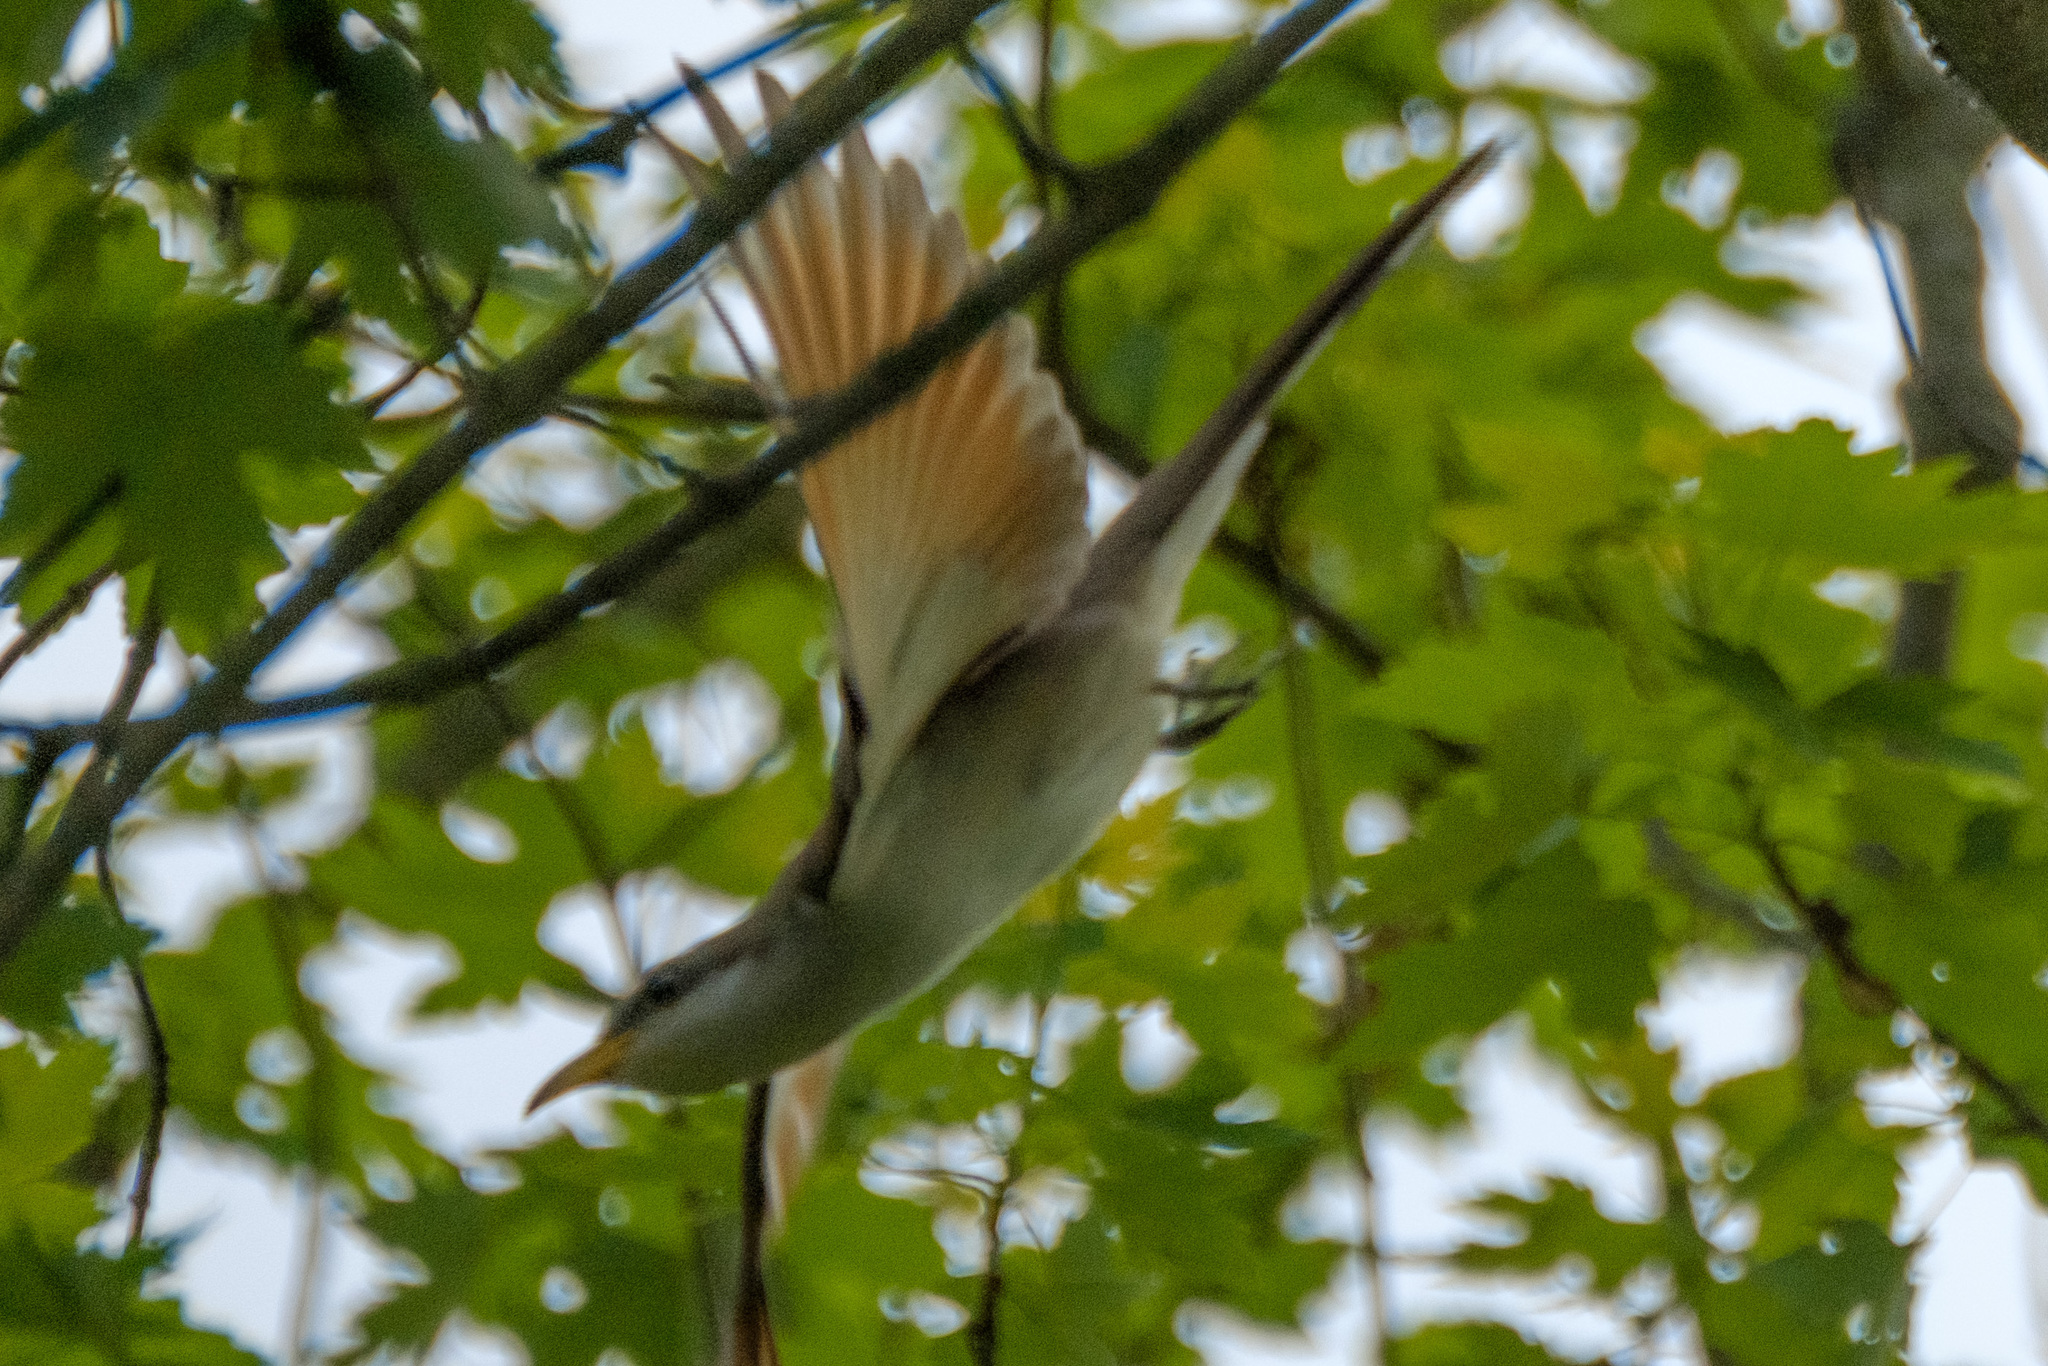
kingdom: Animalia
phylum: Chordata
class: Aves
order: Cuculiformes
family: Cuculidae
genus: Coccyzus
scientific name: Coccyzus americanus
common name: Yellow-billed cuckoo
